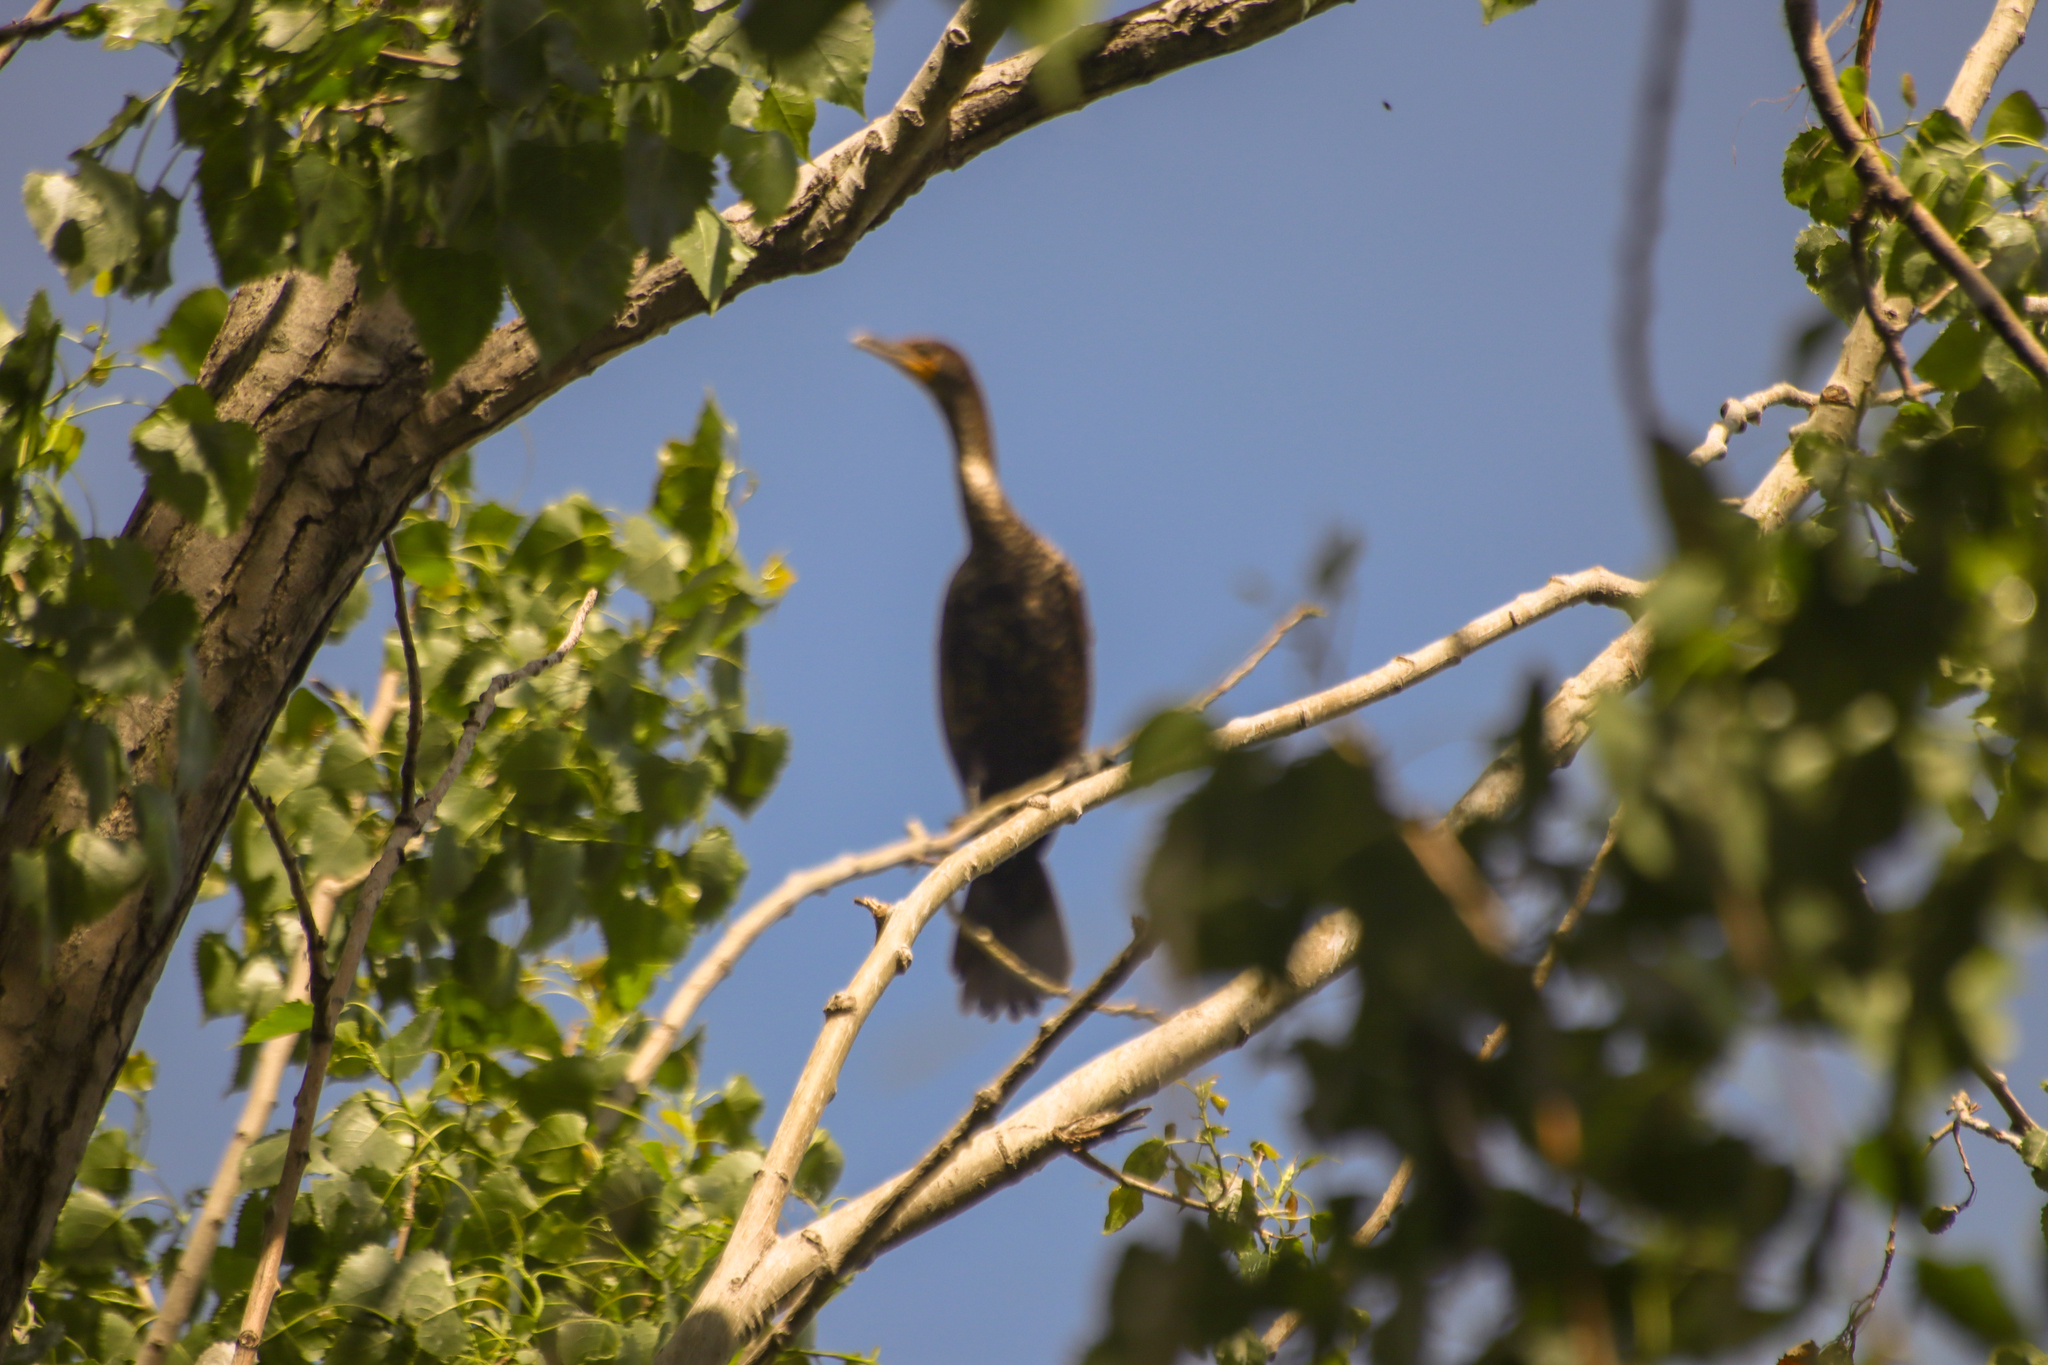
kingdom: Animalia
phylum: Chordata
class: Aves
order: Suliformes
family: Phalacrocoracidae
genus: Phalacrocorax
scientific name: Phalacrocorax auritus
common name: Double-crested cormorant
